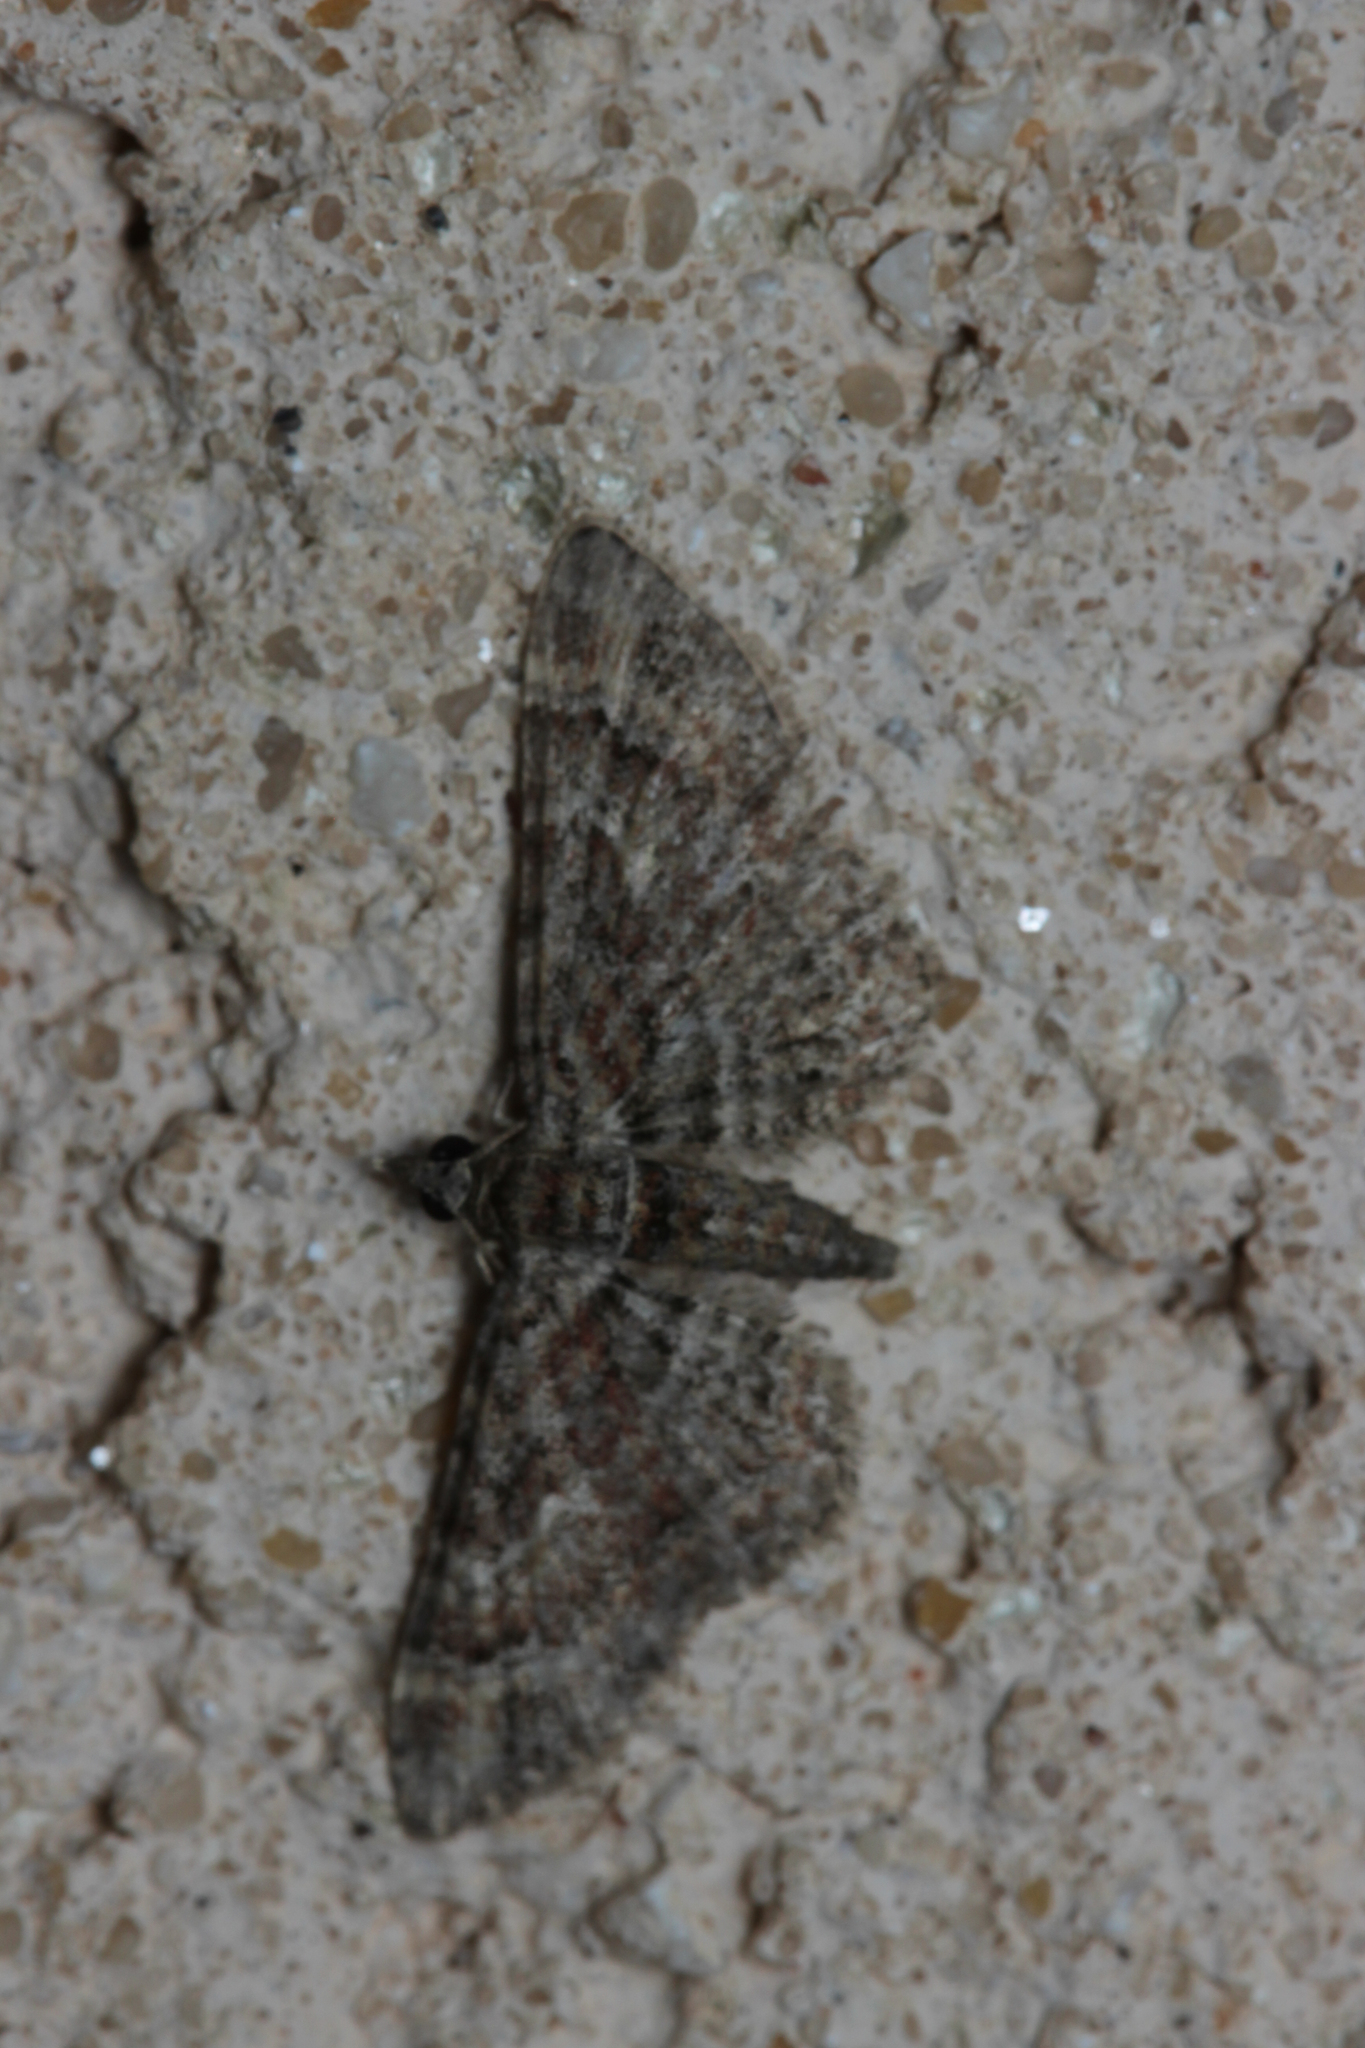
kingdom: Animalia
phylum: Arthropoda
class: Insecta
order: Lepidoptera
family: Geometridae
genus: Gymnoscelis
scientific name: Gymnoscelis rufifasciata
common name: Double-striped pug
